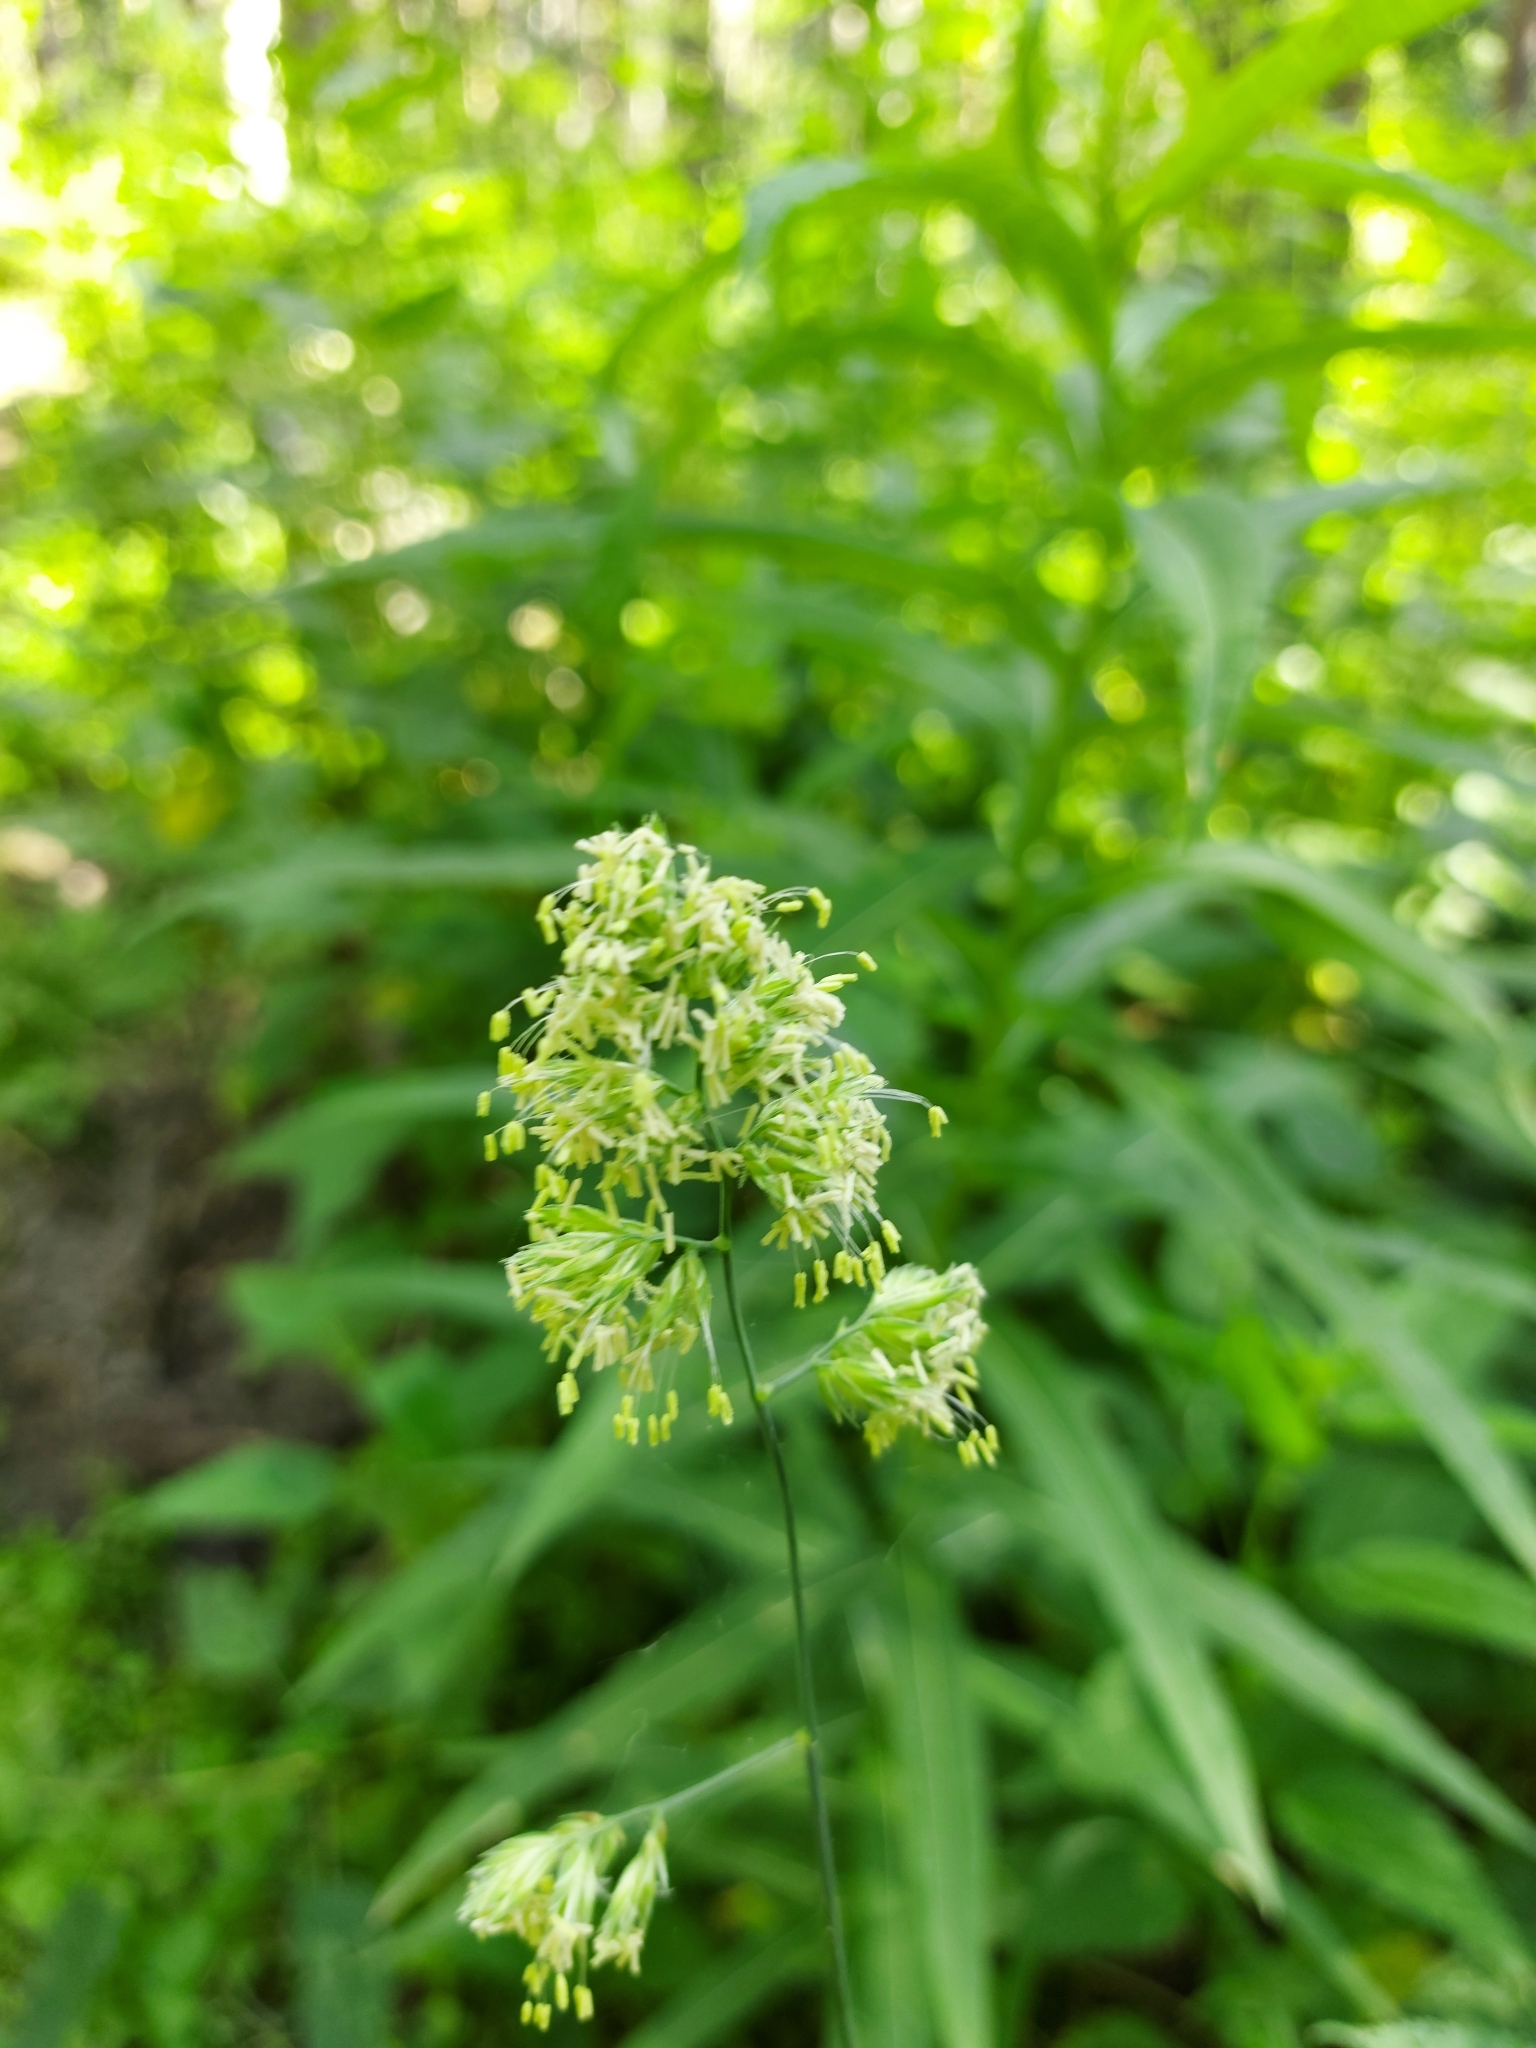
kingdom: Plantae
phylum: Tracheophyta
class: Liliopsida
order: Poales
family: Poaceae
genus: Dactylis
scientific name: Dactylis glomerata
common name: Orchardgrass
